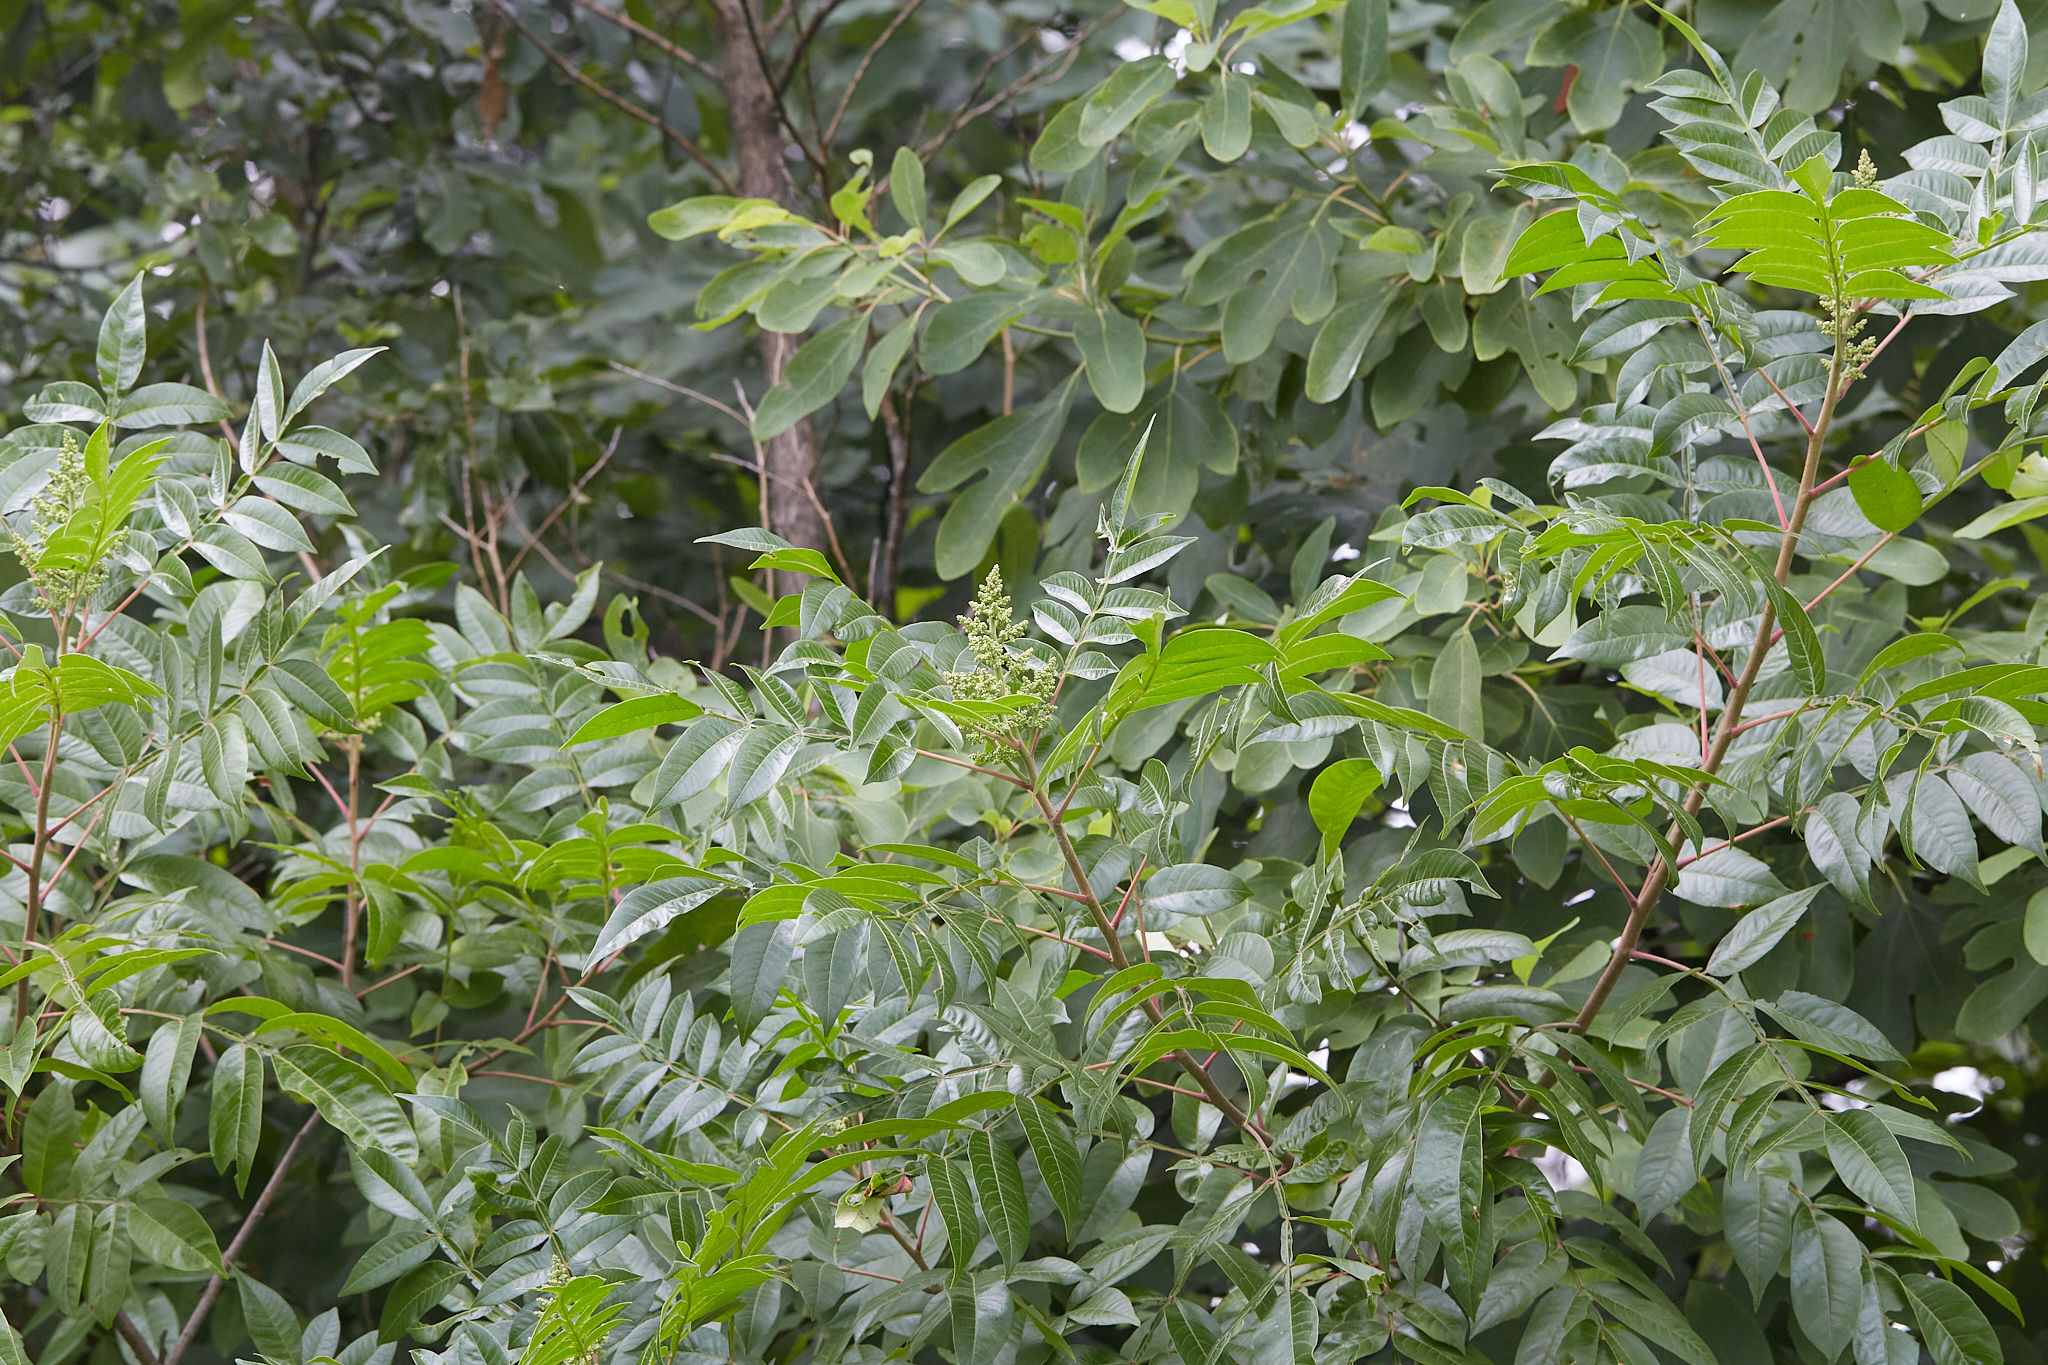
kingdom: Plantae
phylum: Tracheophyta
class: Magnoliopsida
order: Sapindales
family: Anacardiaceae
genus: Rhus
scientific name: Rhus copallina
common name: Shining sumac
